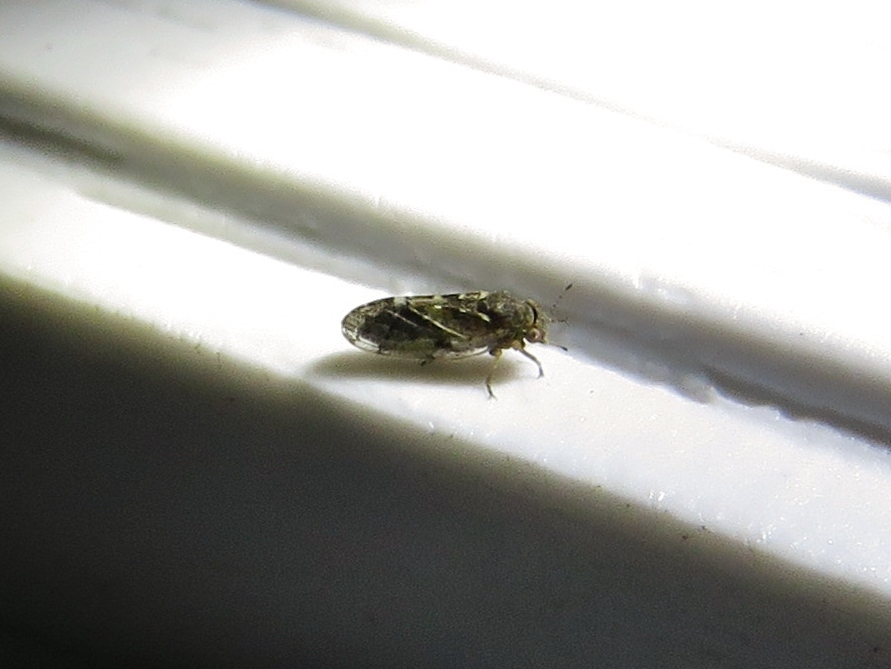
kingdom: Animalia
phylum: Arthropoda
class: Insecta
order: Hemiptera
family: Aphalaridae
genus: Pachypsylla
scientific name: Pachypsylla celtidisvesicula
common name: Hackberry blister gall psyllid
